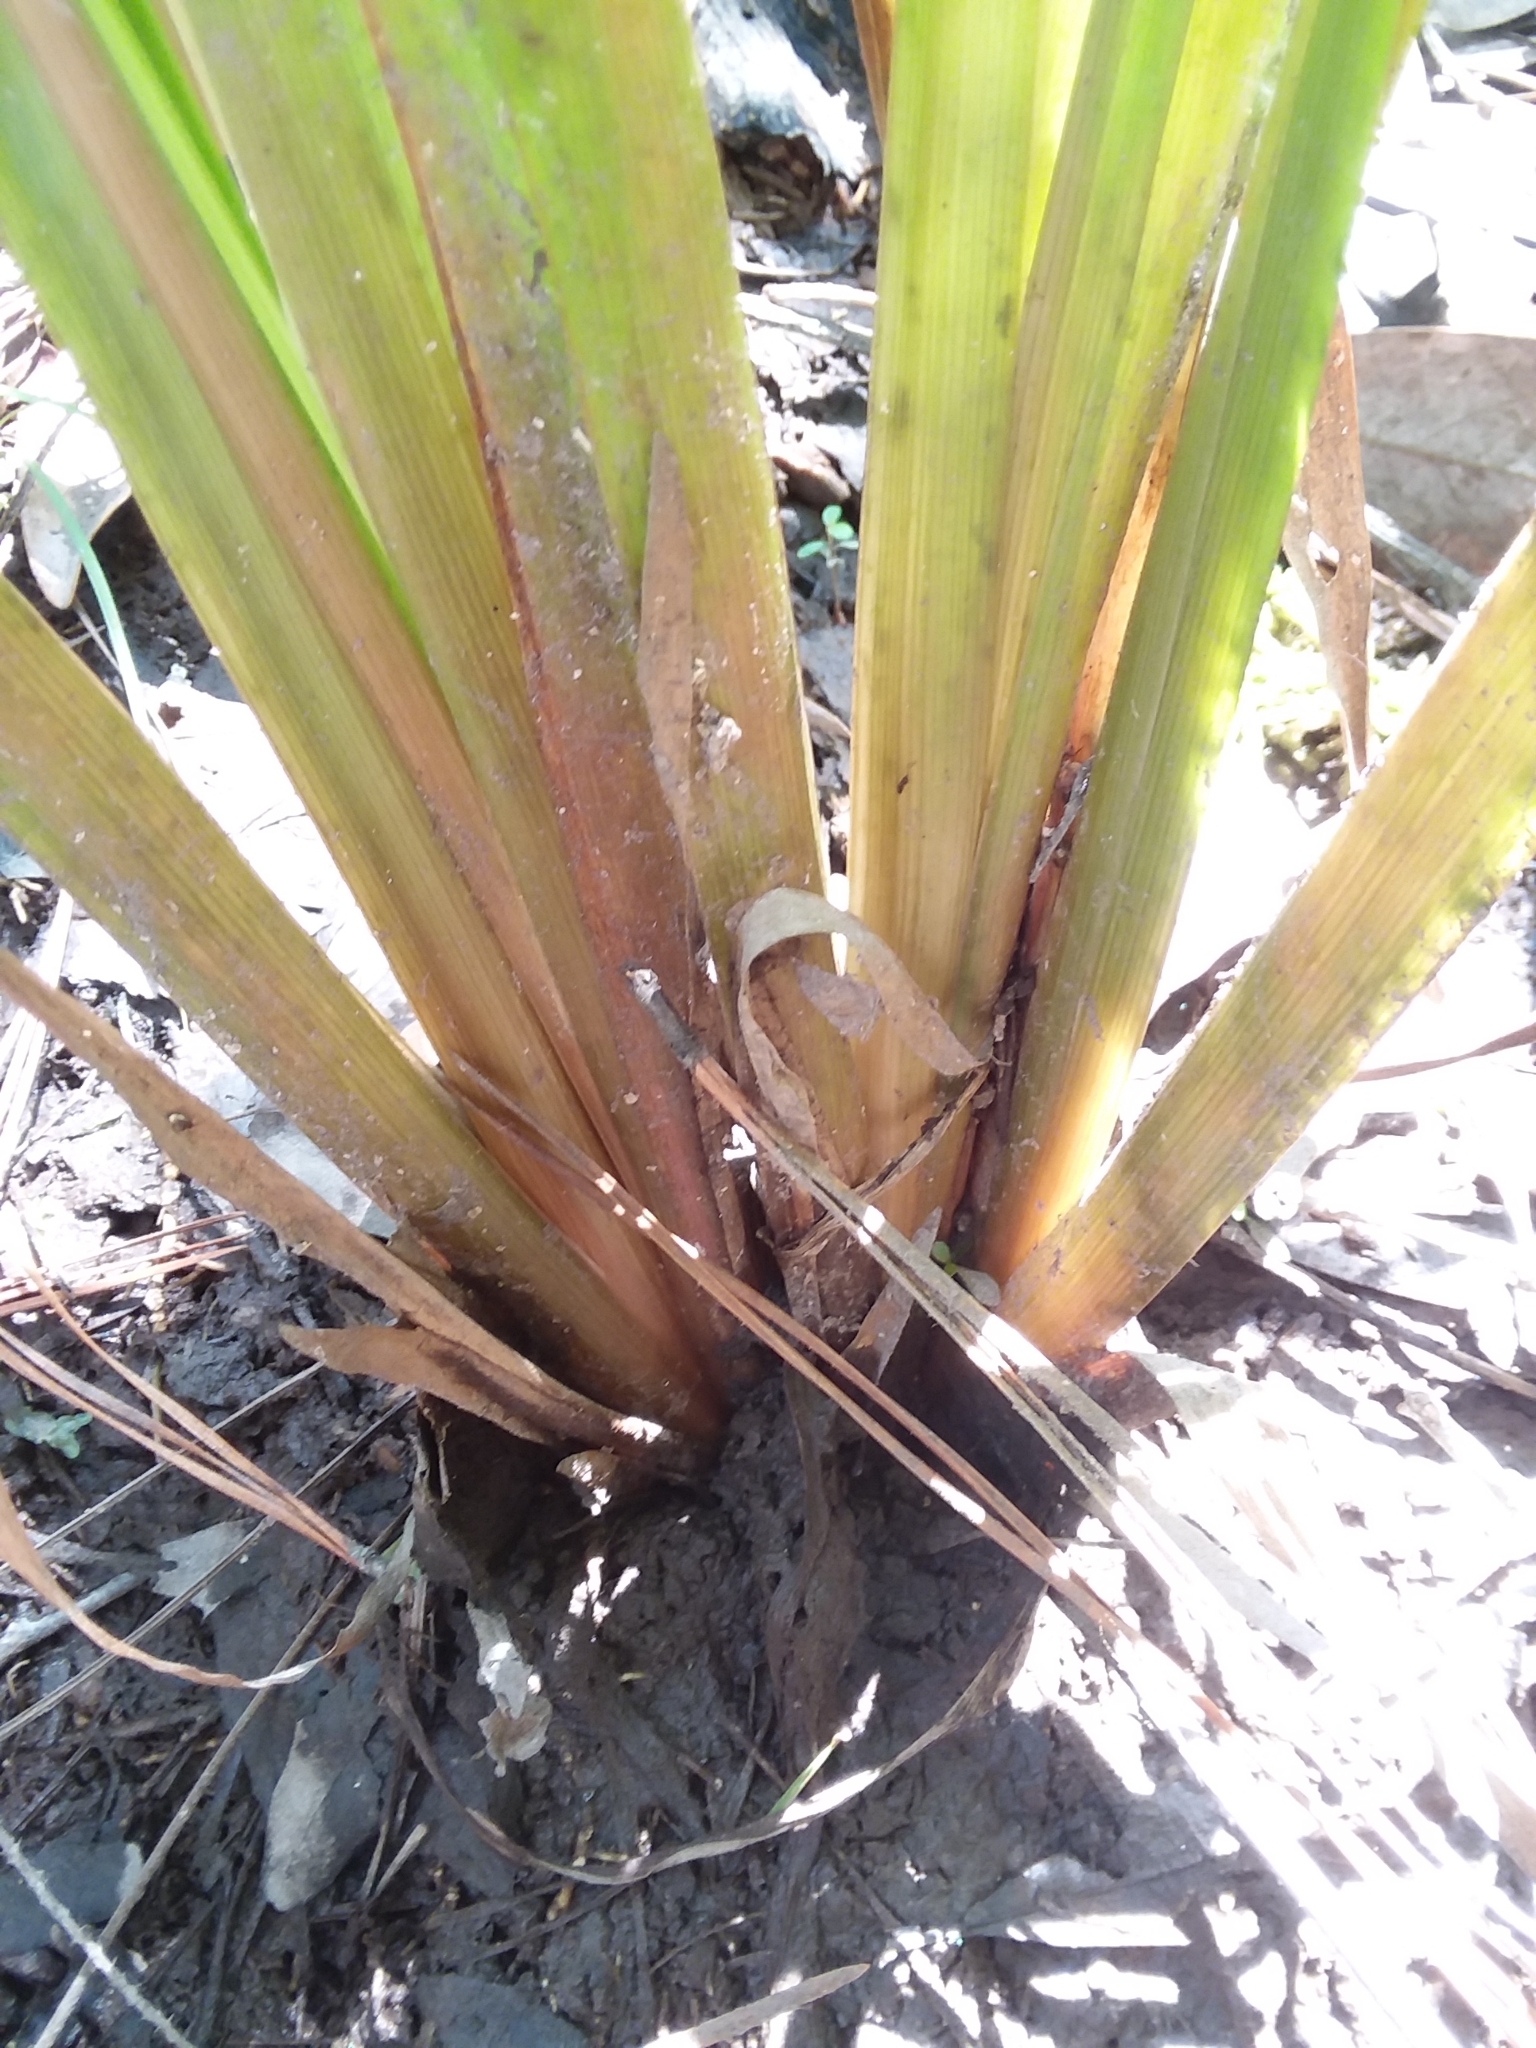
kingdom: Plantae
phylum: Tracheophyta
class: Liliopsida
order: Poales
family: Xyridaceae
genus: Xyris
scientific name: Xyris laxifolia
